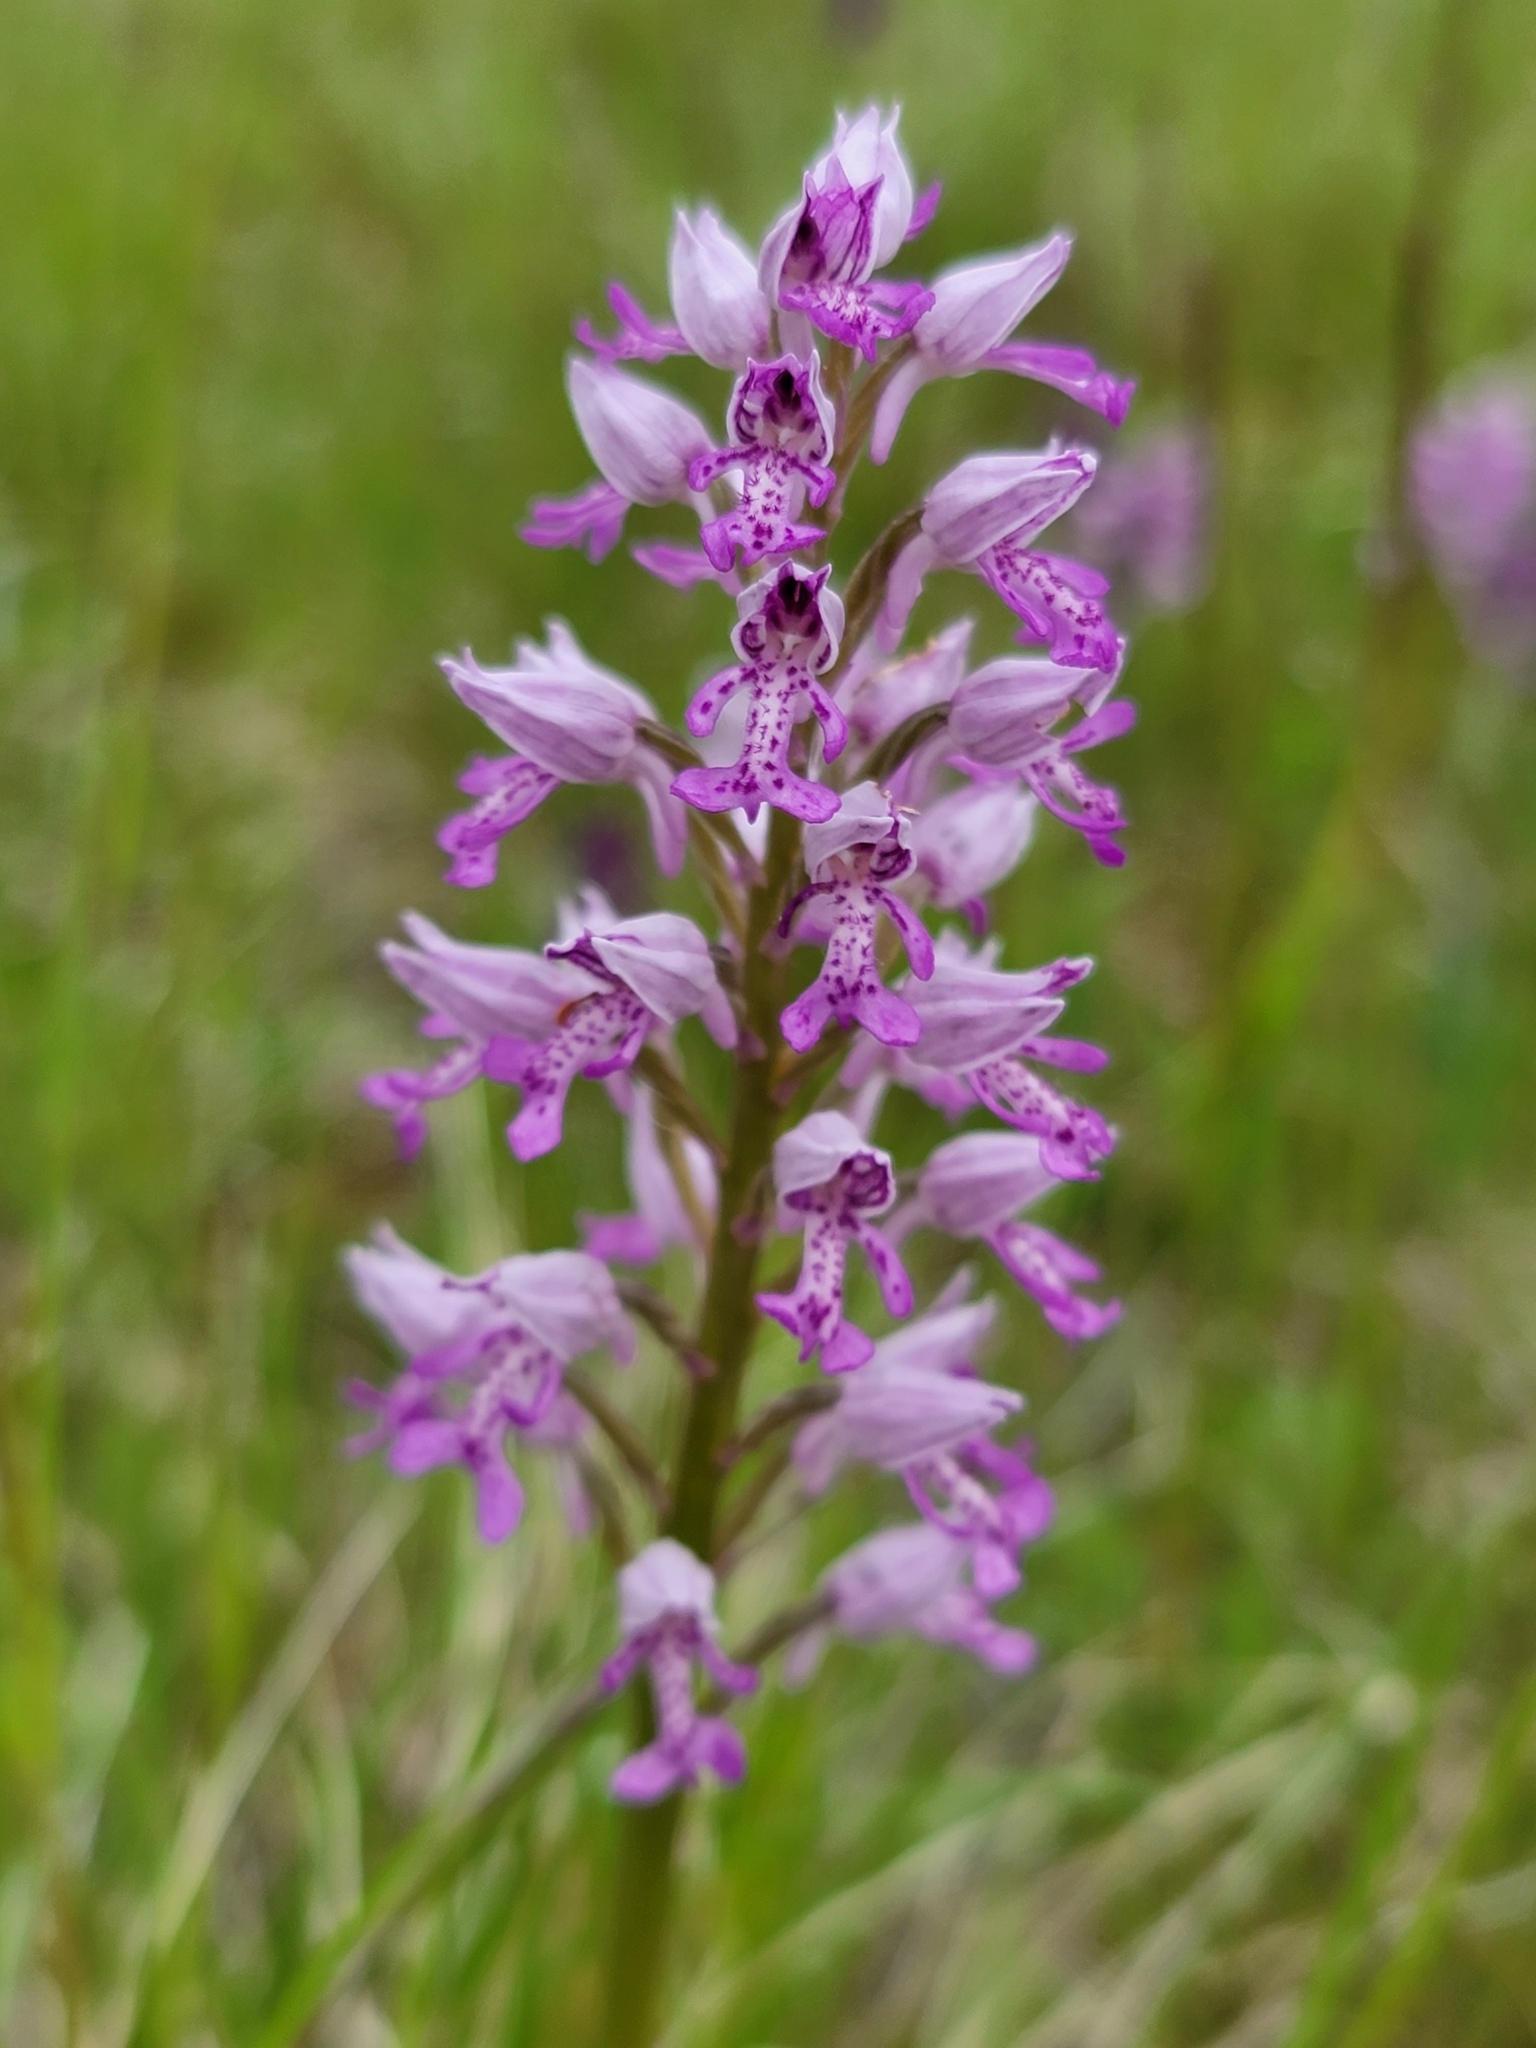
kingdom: Plantae
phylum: Tracheophyta
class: Liliopsida
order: Asparagales
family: Orchidaceae
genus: Orchis
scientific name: Orchis militaris
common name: Military orchid
